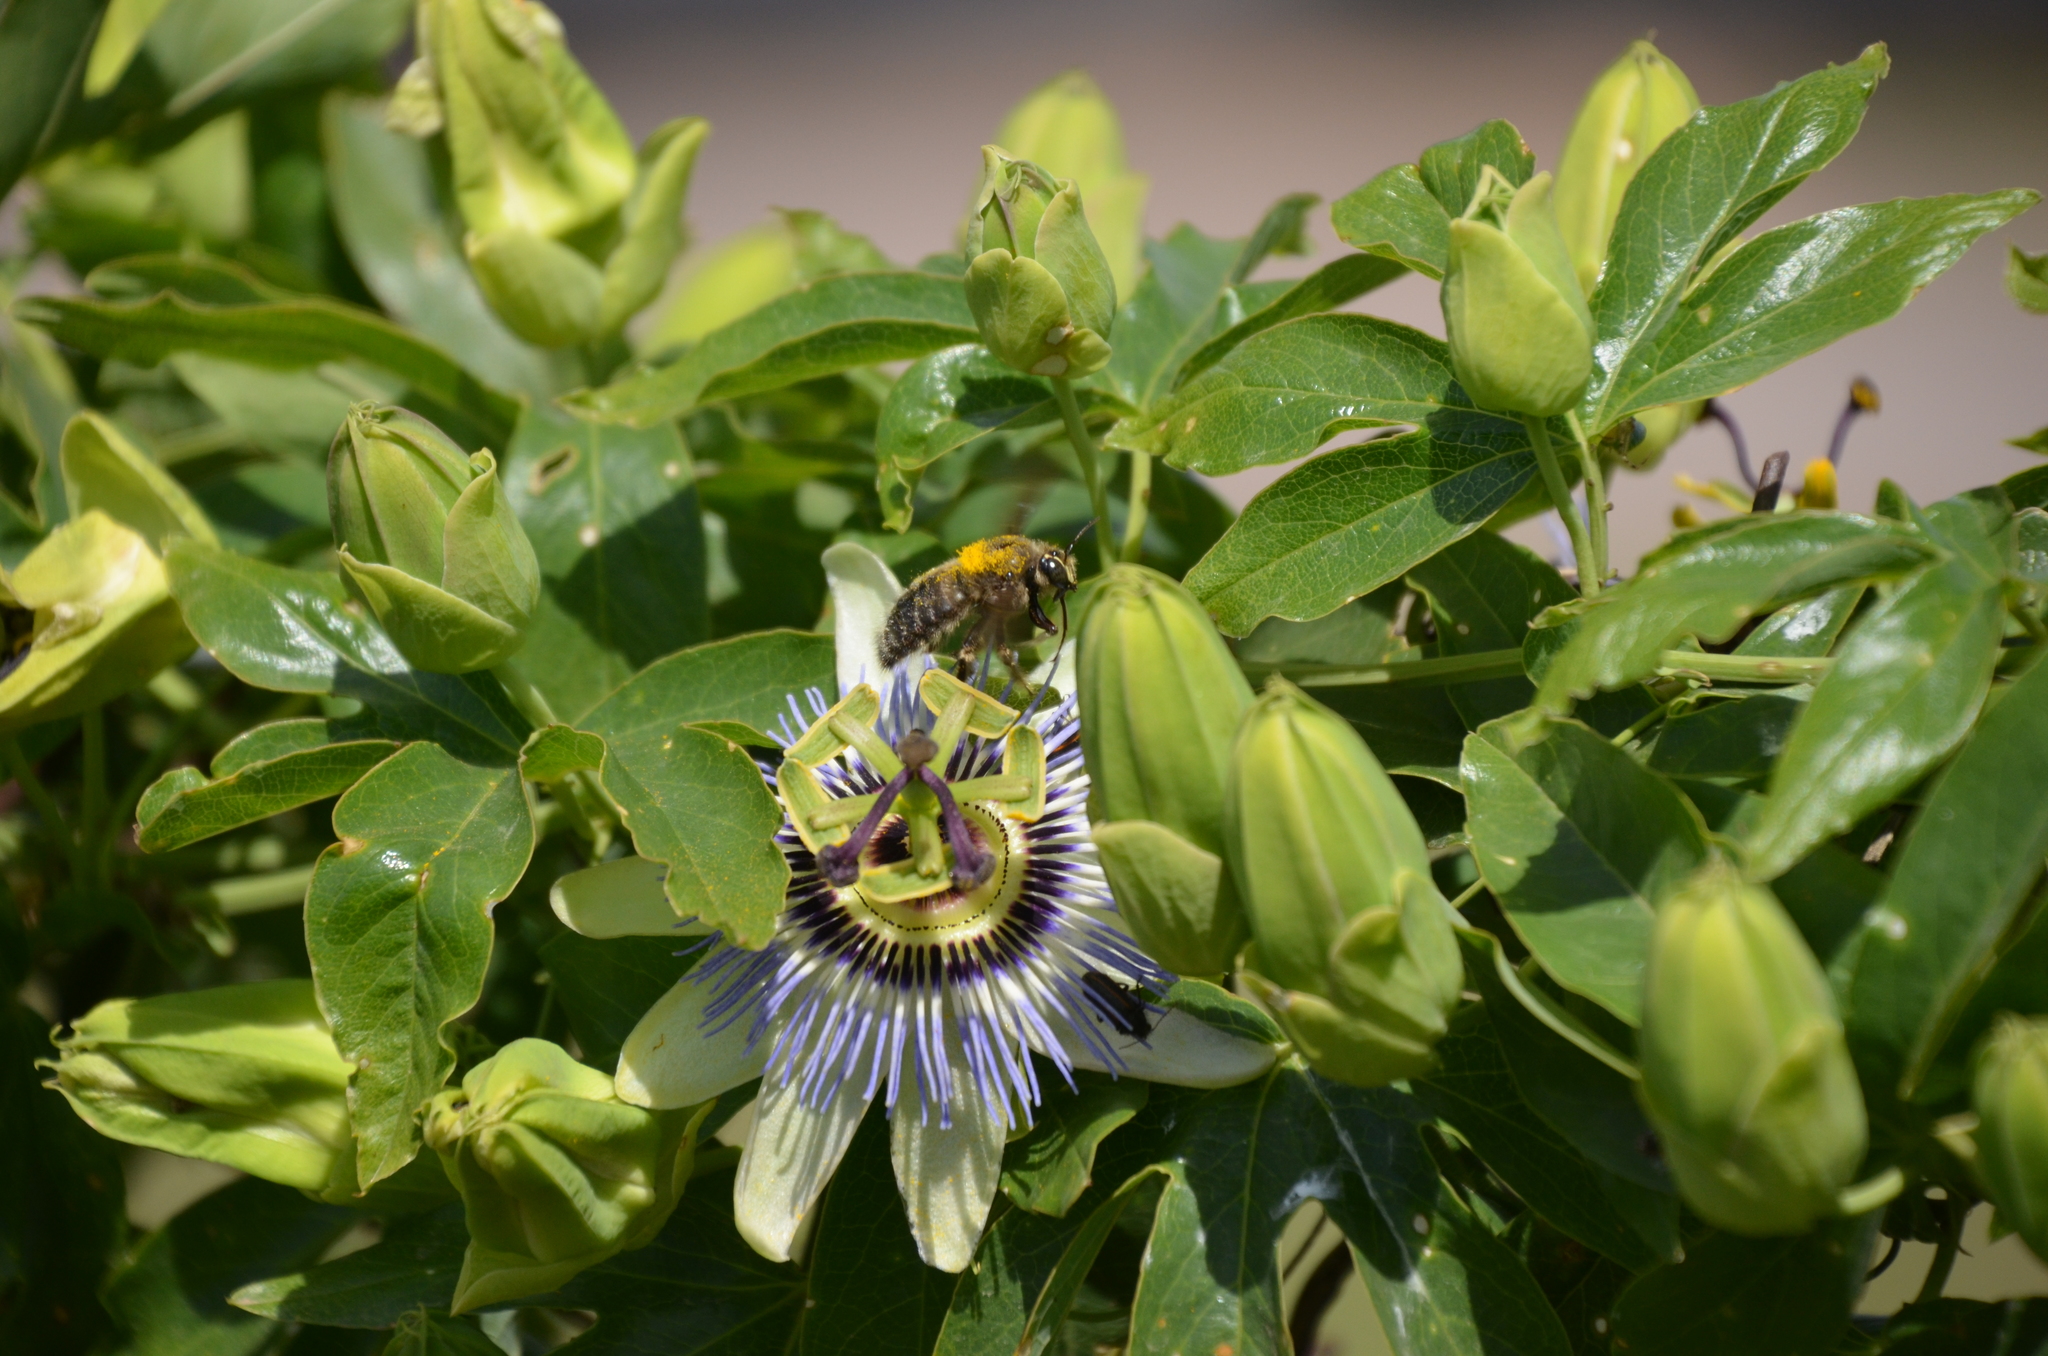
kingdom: Plantae
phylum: Tracheophyta
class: Magnoliopsida
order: Malpighiales
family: Passifloraceae
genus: Passiflora
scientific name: Passiflora caerulea
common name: Blue passionflower
